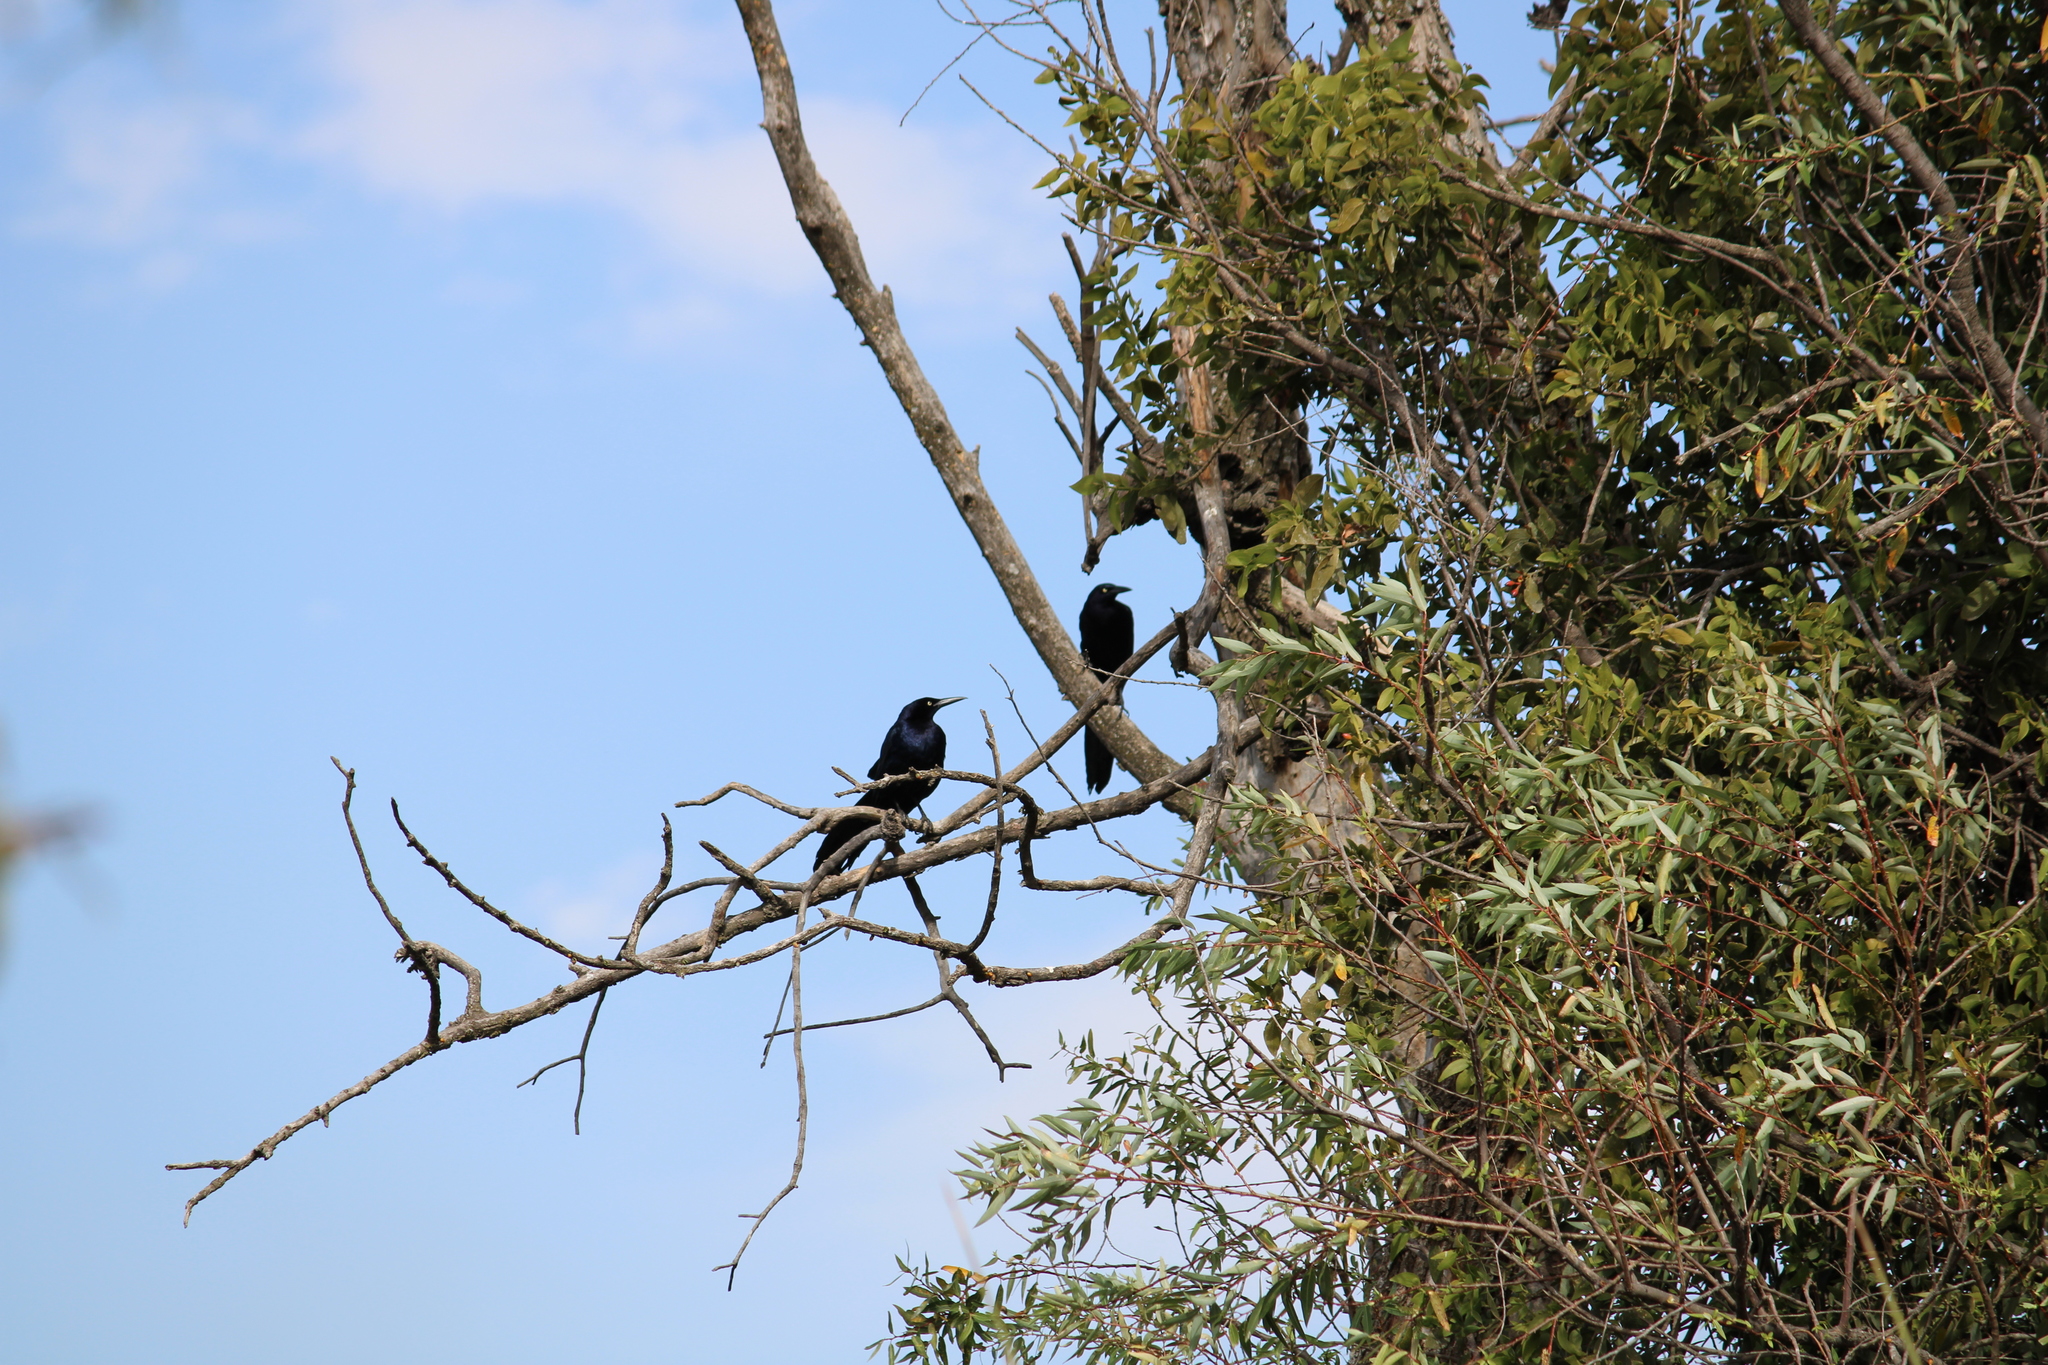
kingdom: Animalia
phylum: Chordata
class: Aves
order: Passeriformes
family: Icteridae
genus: Quiscalus
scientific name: Quiscalus mexicanus
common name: Great-tailed grackle
